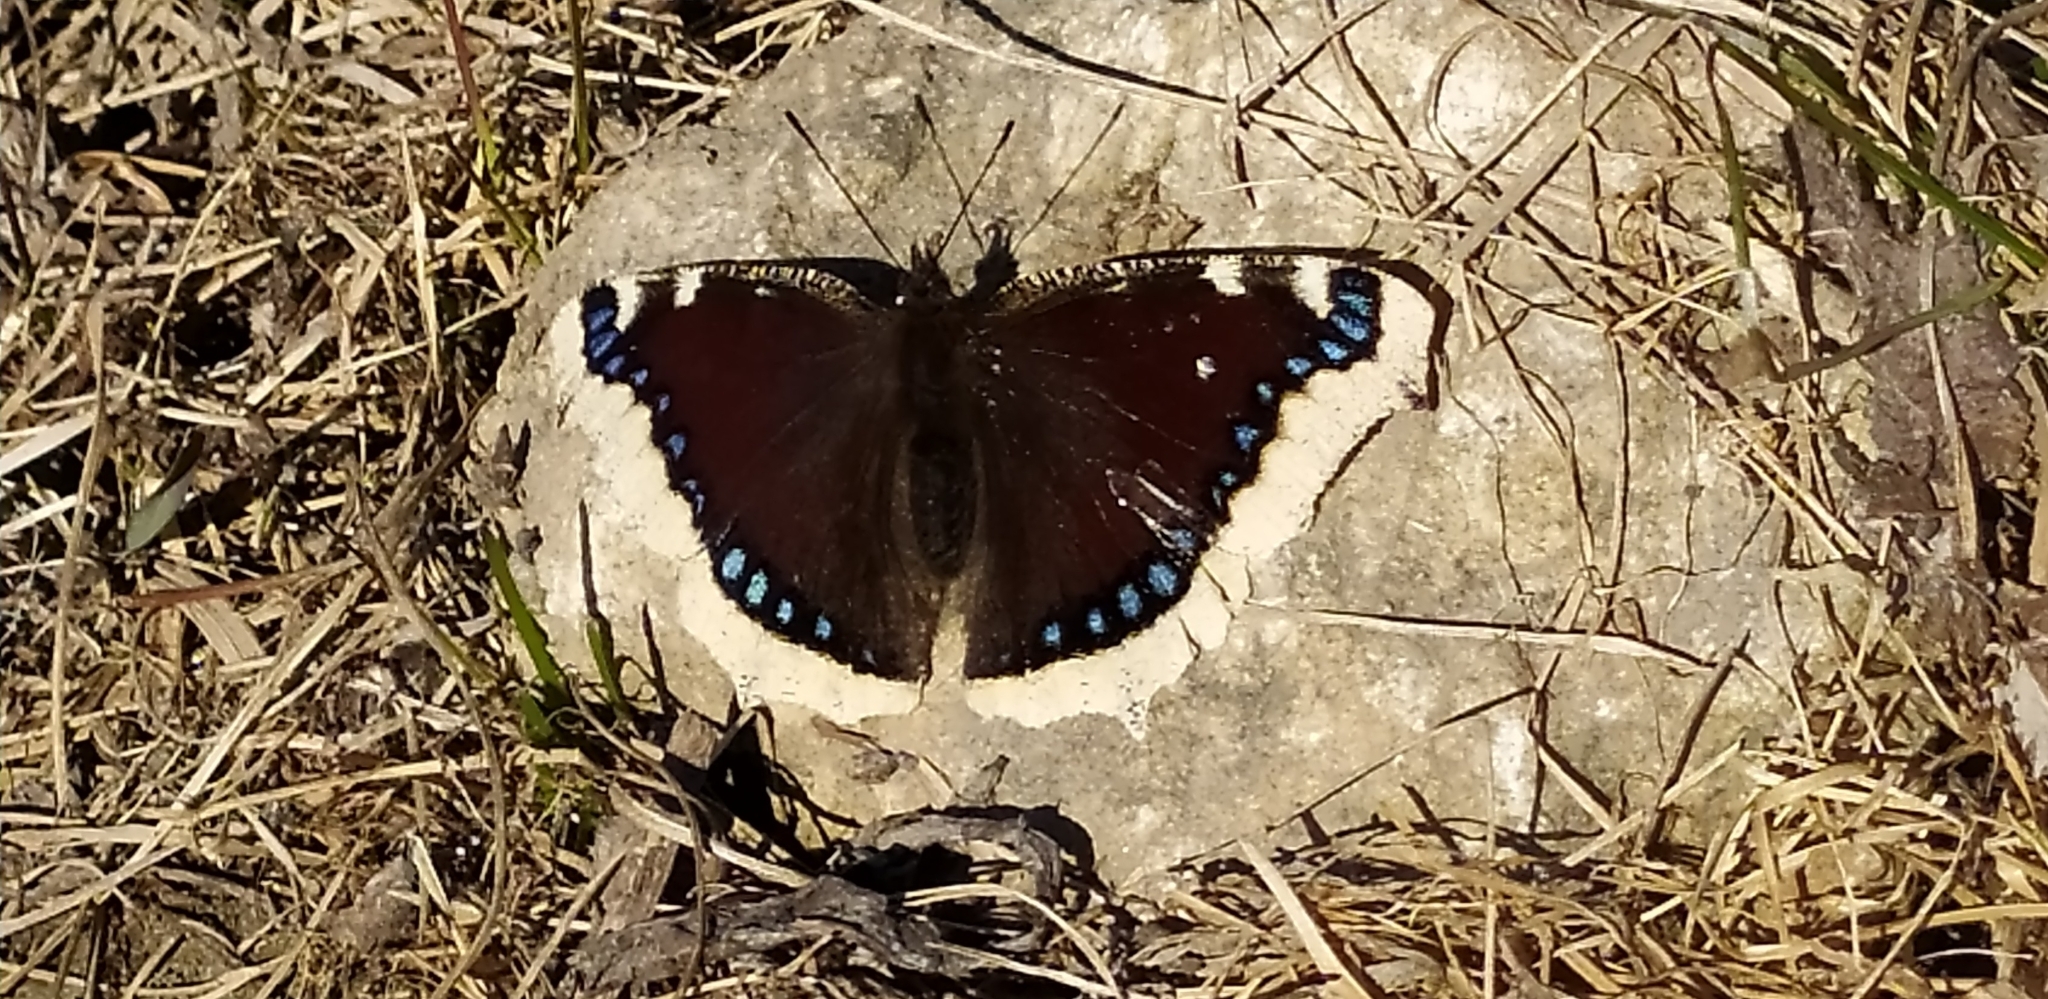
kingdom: Animalia
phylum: Arthropoda
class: Insecta
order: Lepidoptera
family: Nymphalidae
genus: Nymphalis
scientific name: Nymphalis antiopa
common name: Camberwell beauty
